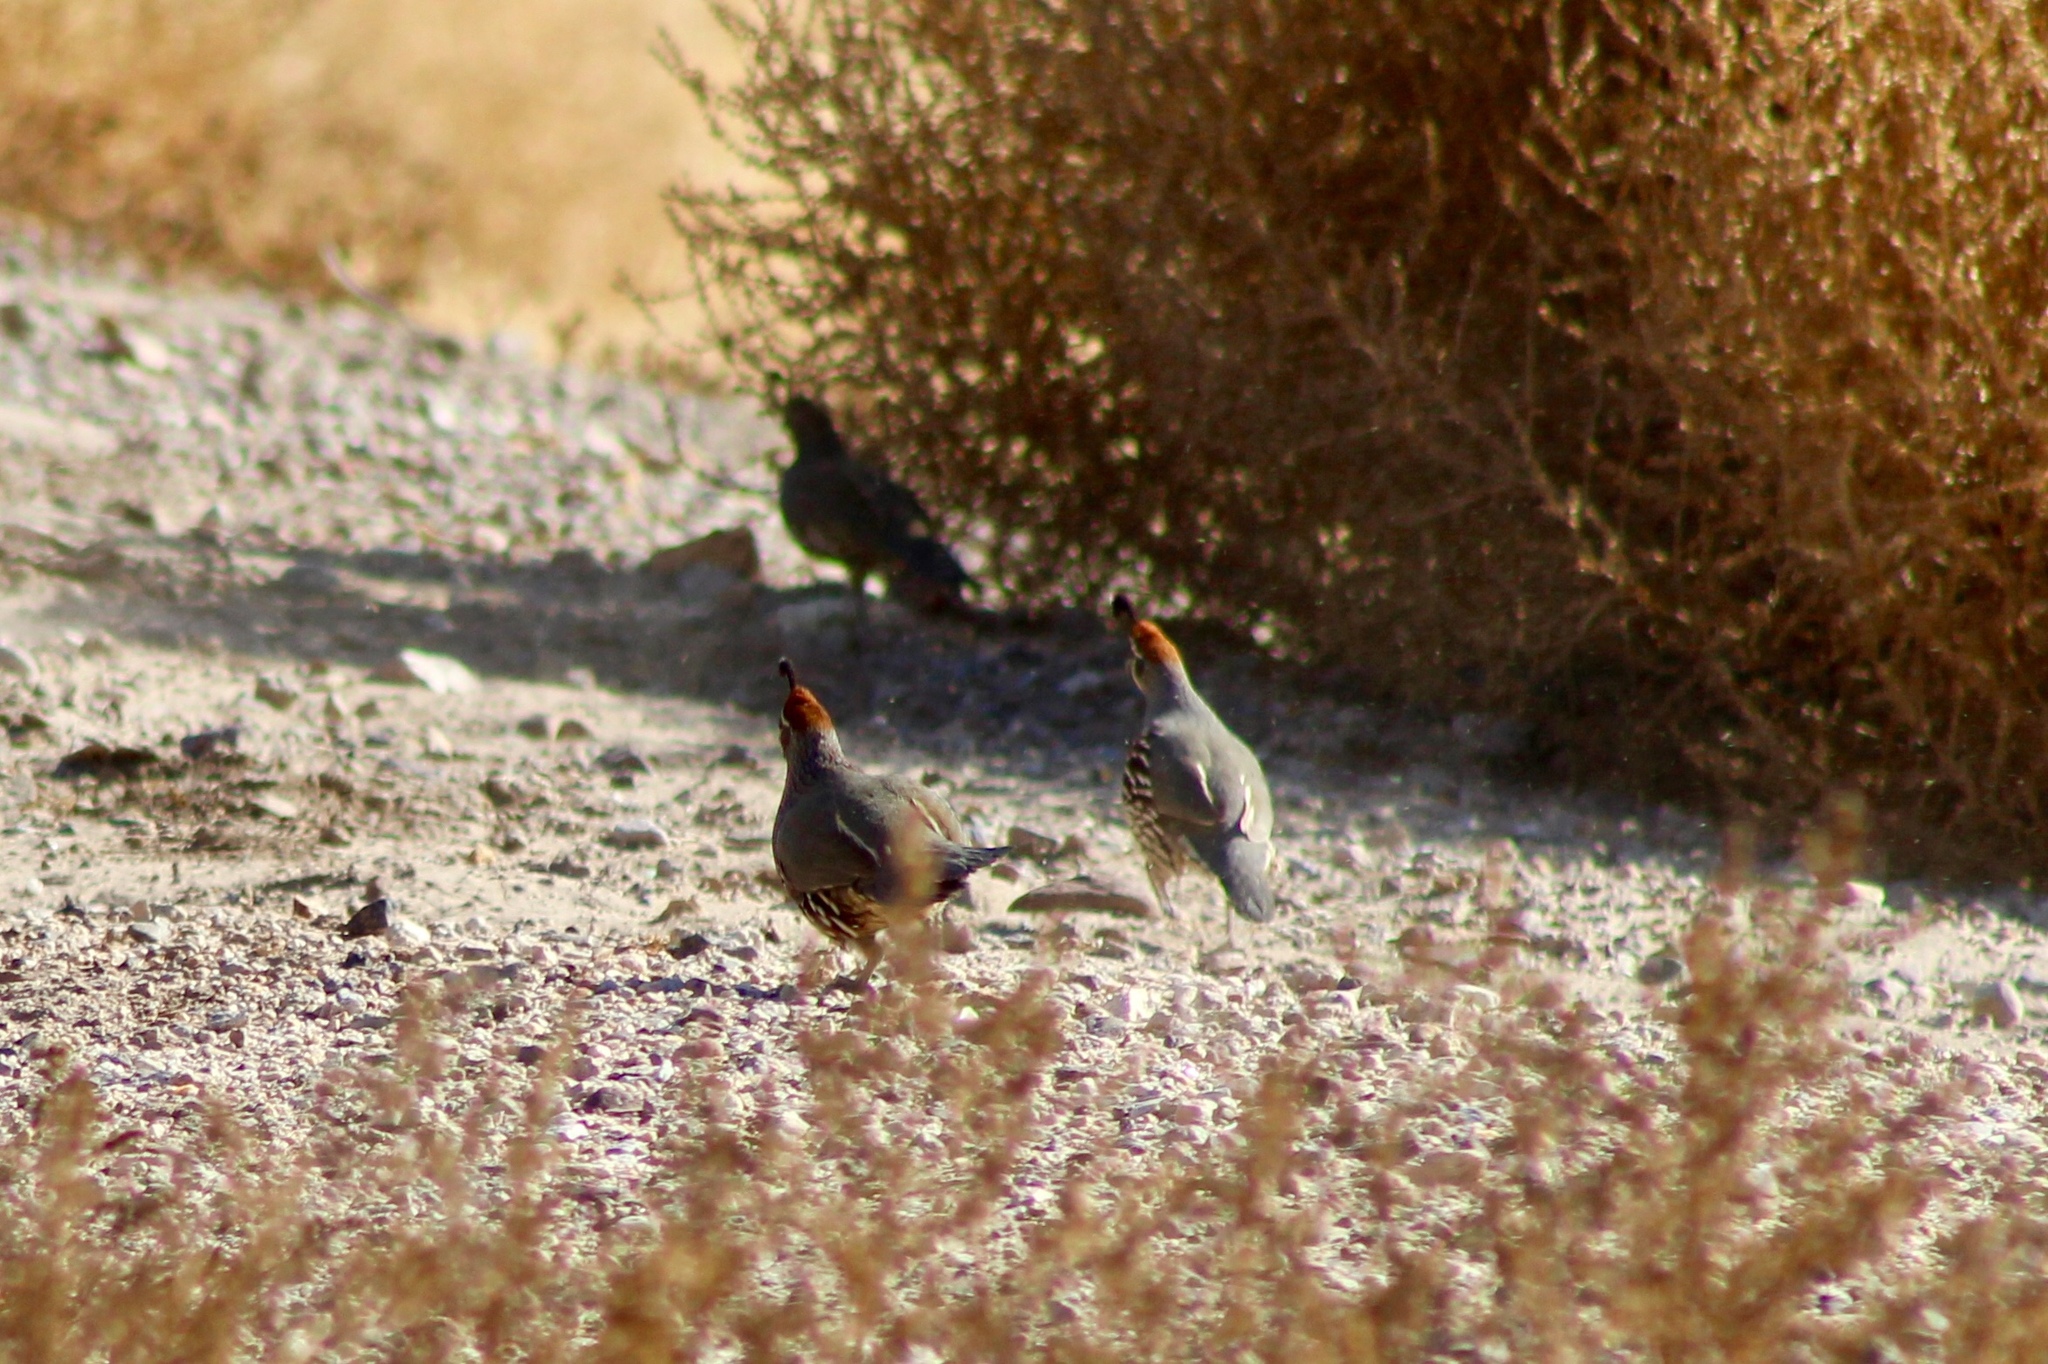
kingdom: Animalia
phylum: Chordata
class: Aves
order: Galliformes
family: Odontophoridae
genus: Callipepla
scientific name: Callipepla gambelii
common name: Gambel's quail
